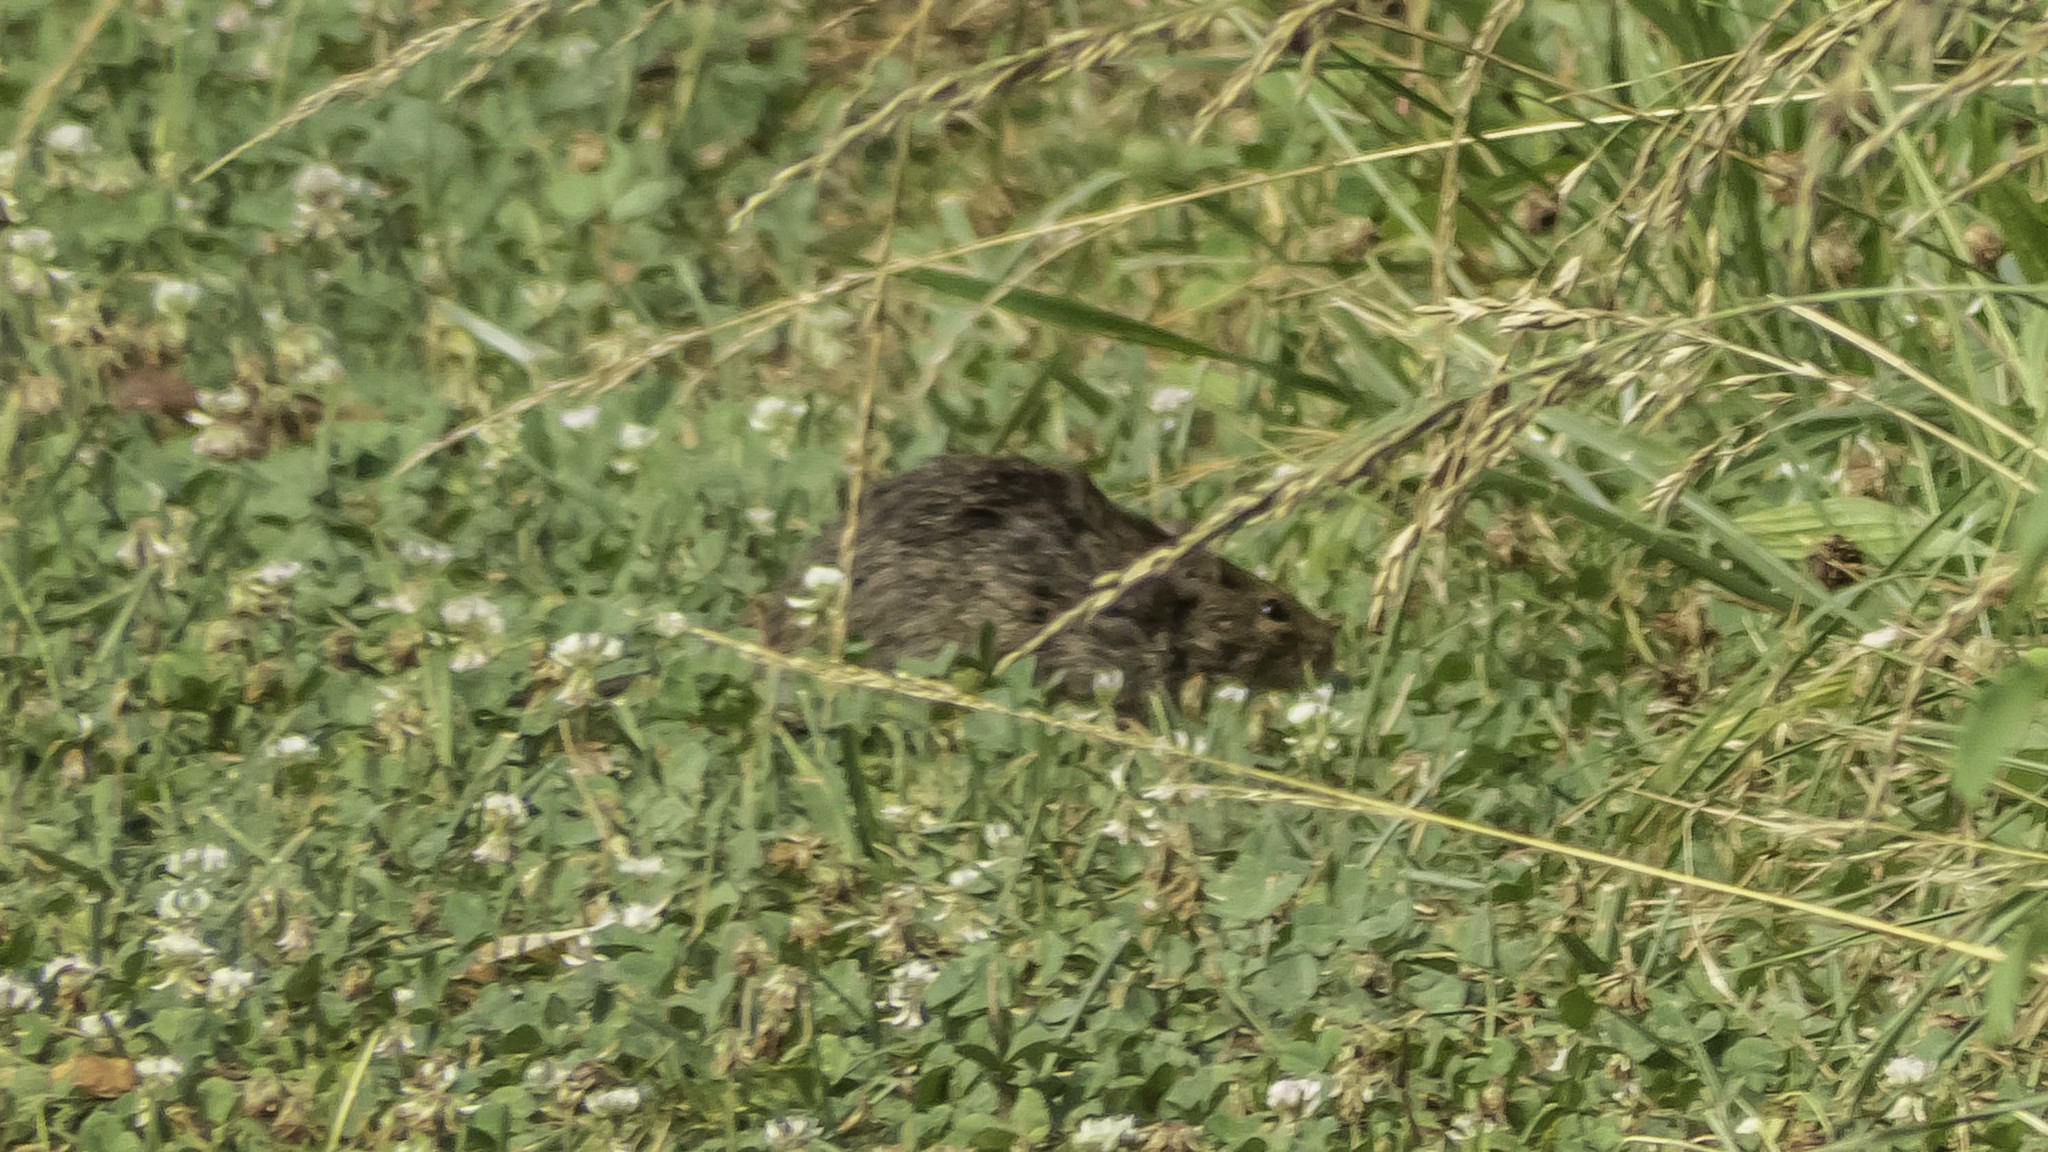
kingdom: Animalia
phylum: Chordata
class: Mammalia
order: Rodentia
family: Cricetidae
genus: Sigmodon
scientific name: Sigmodon hispidus
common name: Hispid cotton rat
